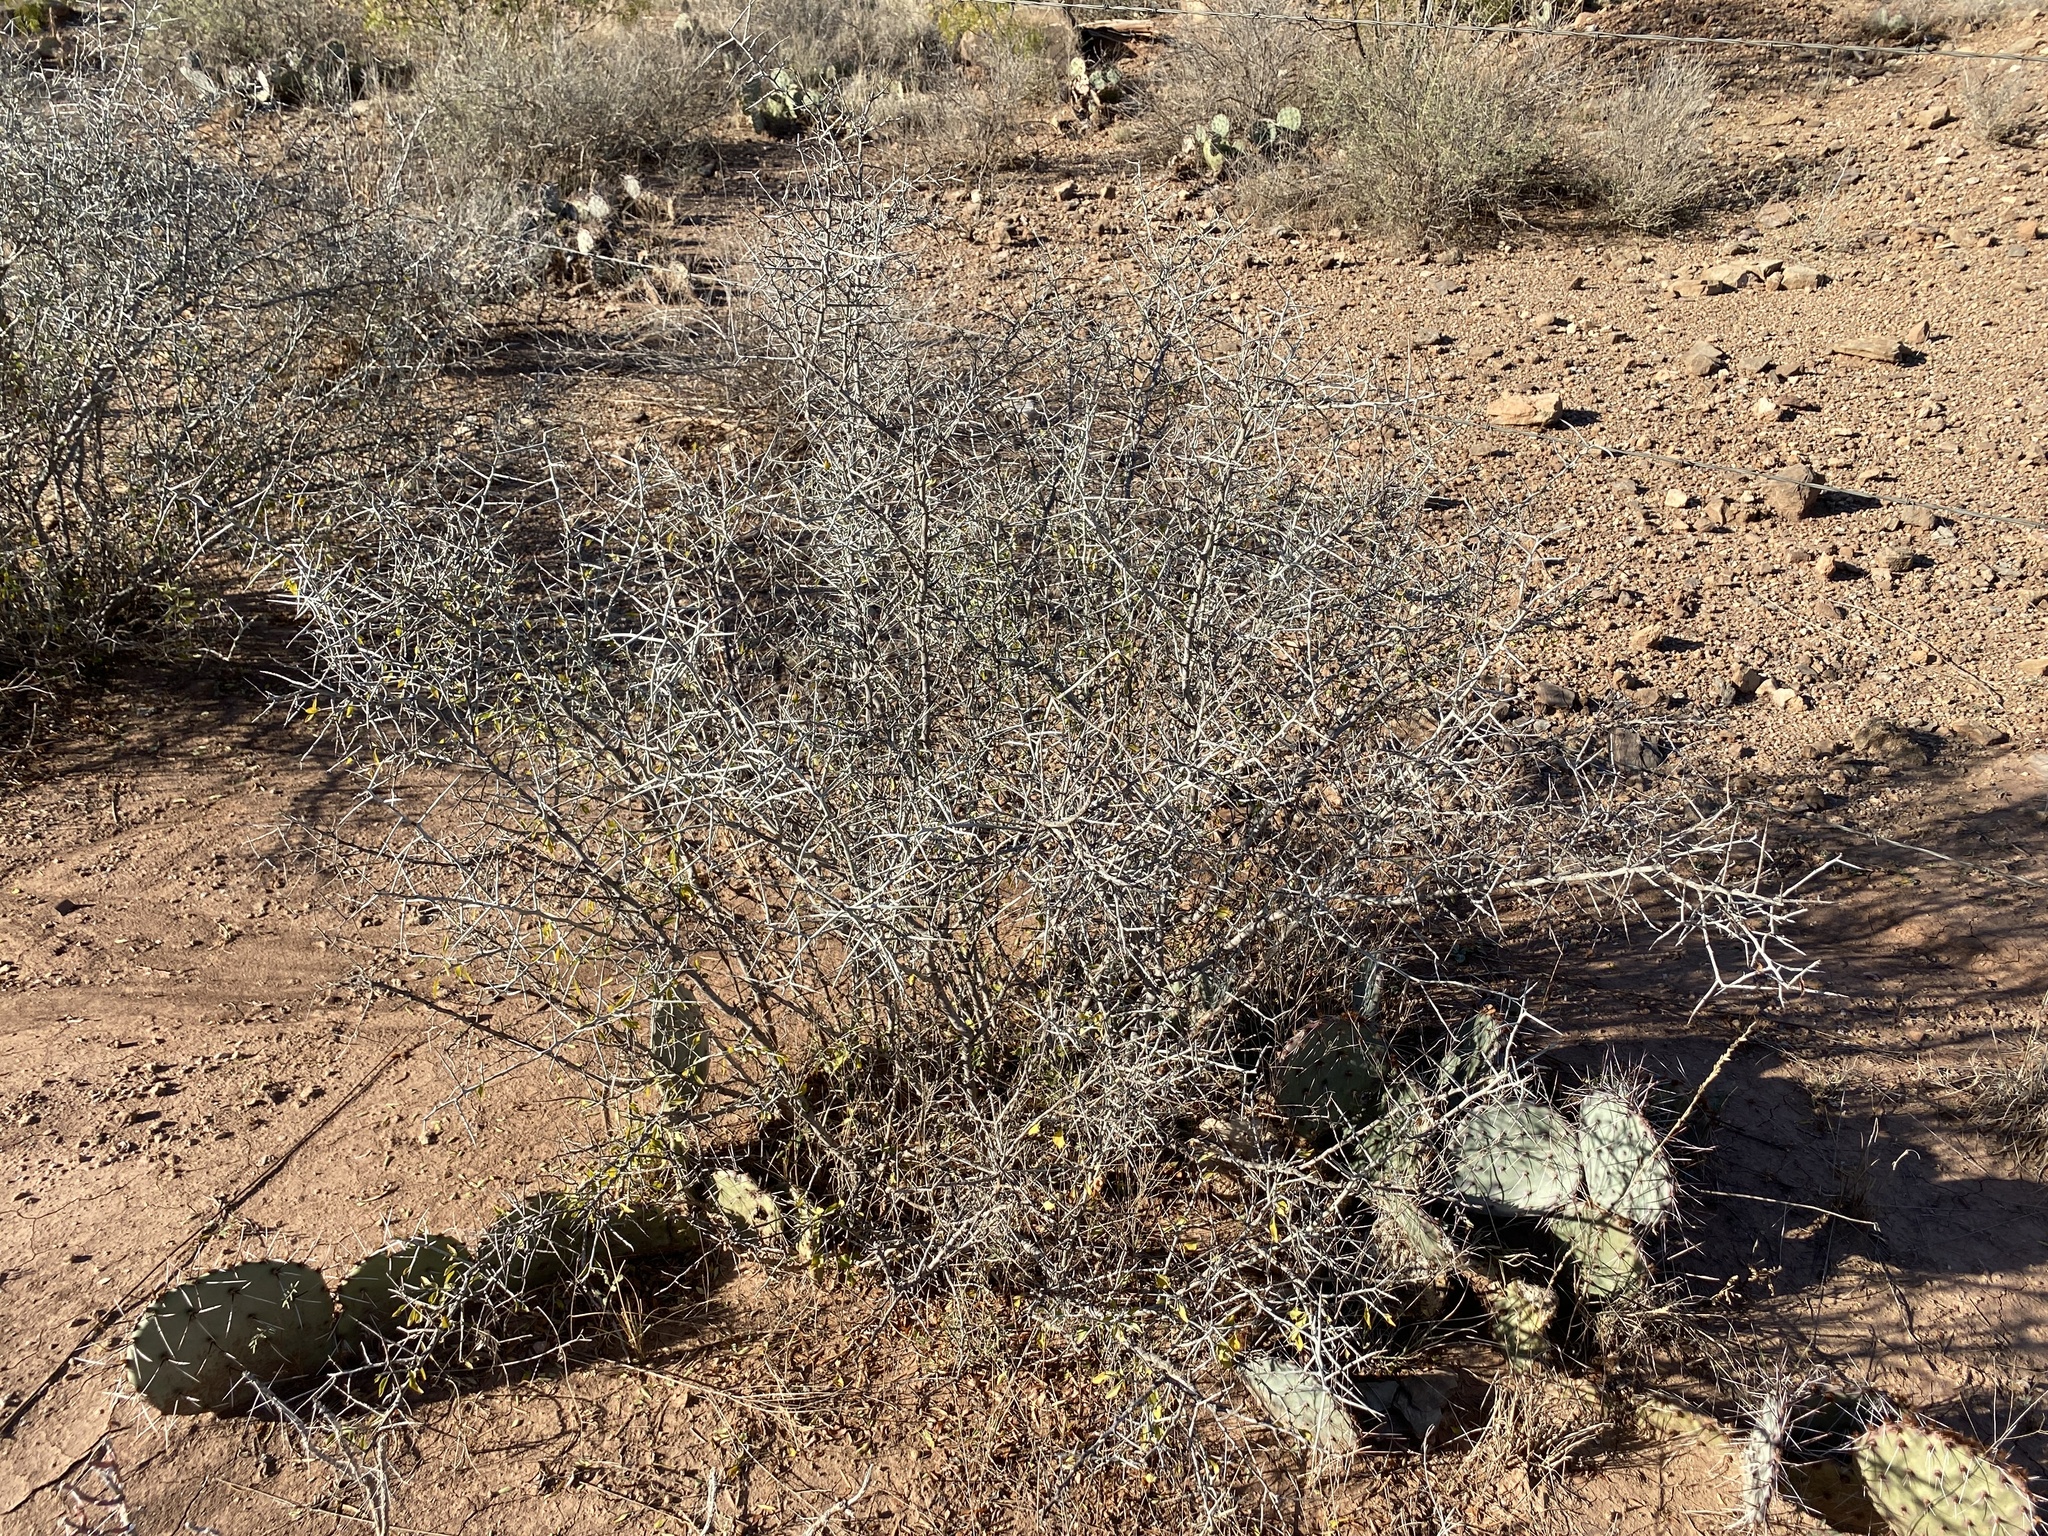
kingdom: Plantae
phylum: Tracheophyta
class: Magnoliopsida
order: Rosales
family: Rhamnaceae
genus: Sarcomphalus
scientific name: Sarcomphalus obtusifolius
